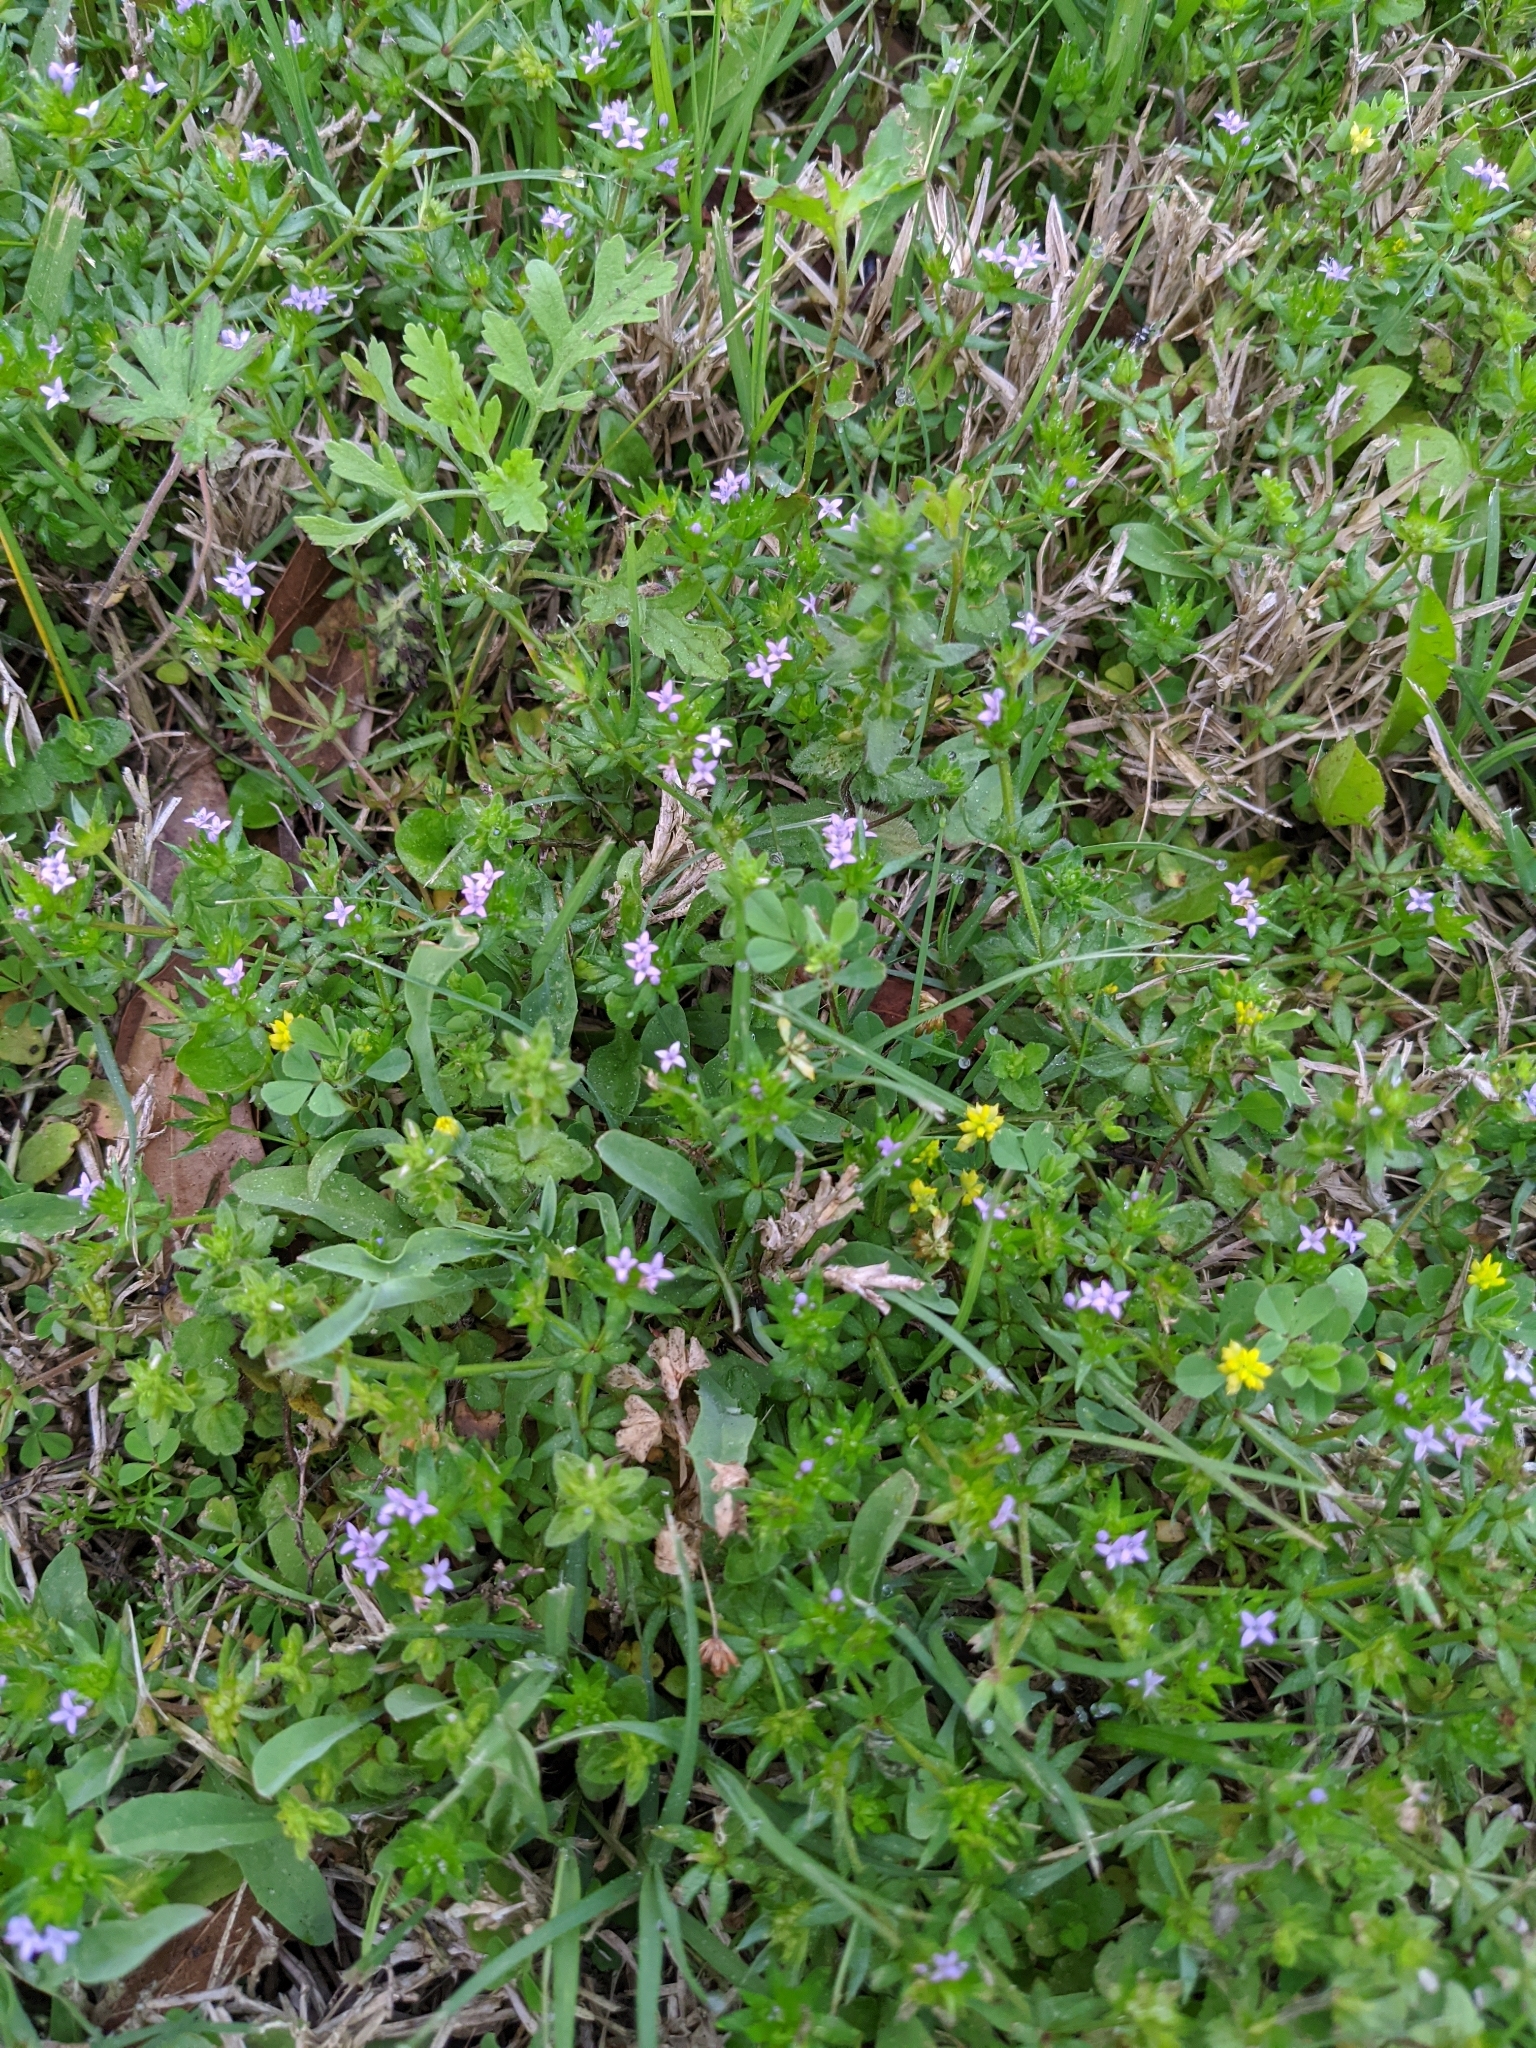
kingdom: Plantae
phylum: Tracheophyta
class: Magnoliopsida
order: Gentianales
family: Rubiaceae
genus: Sherardia
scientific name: Sherardia arvensis
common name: Field madder
